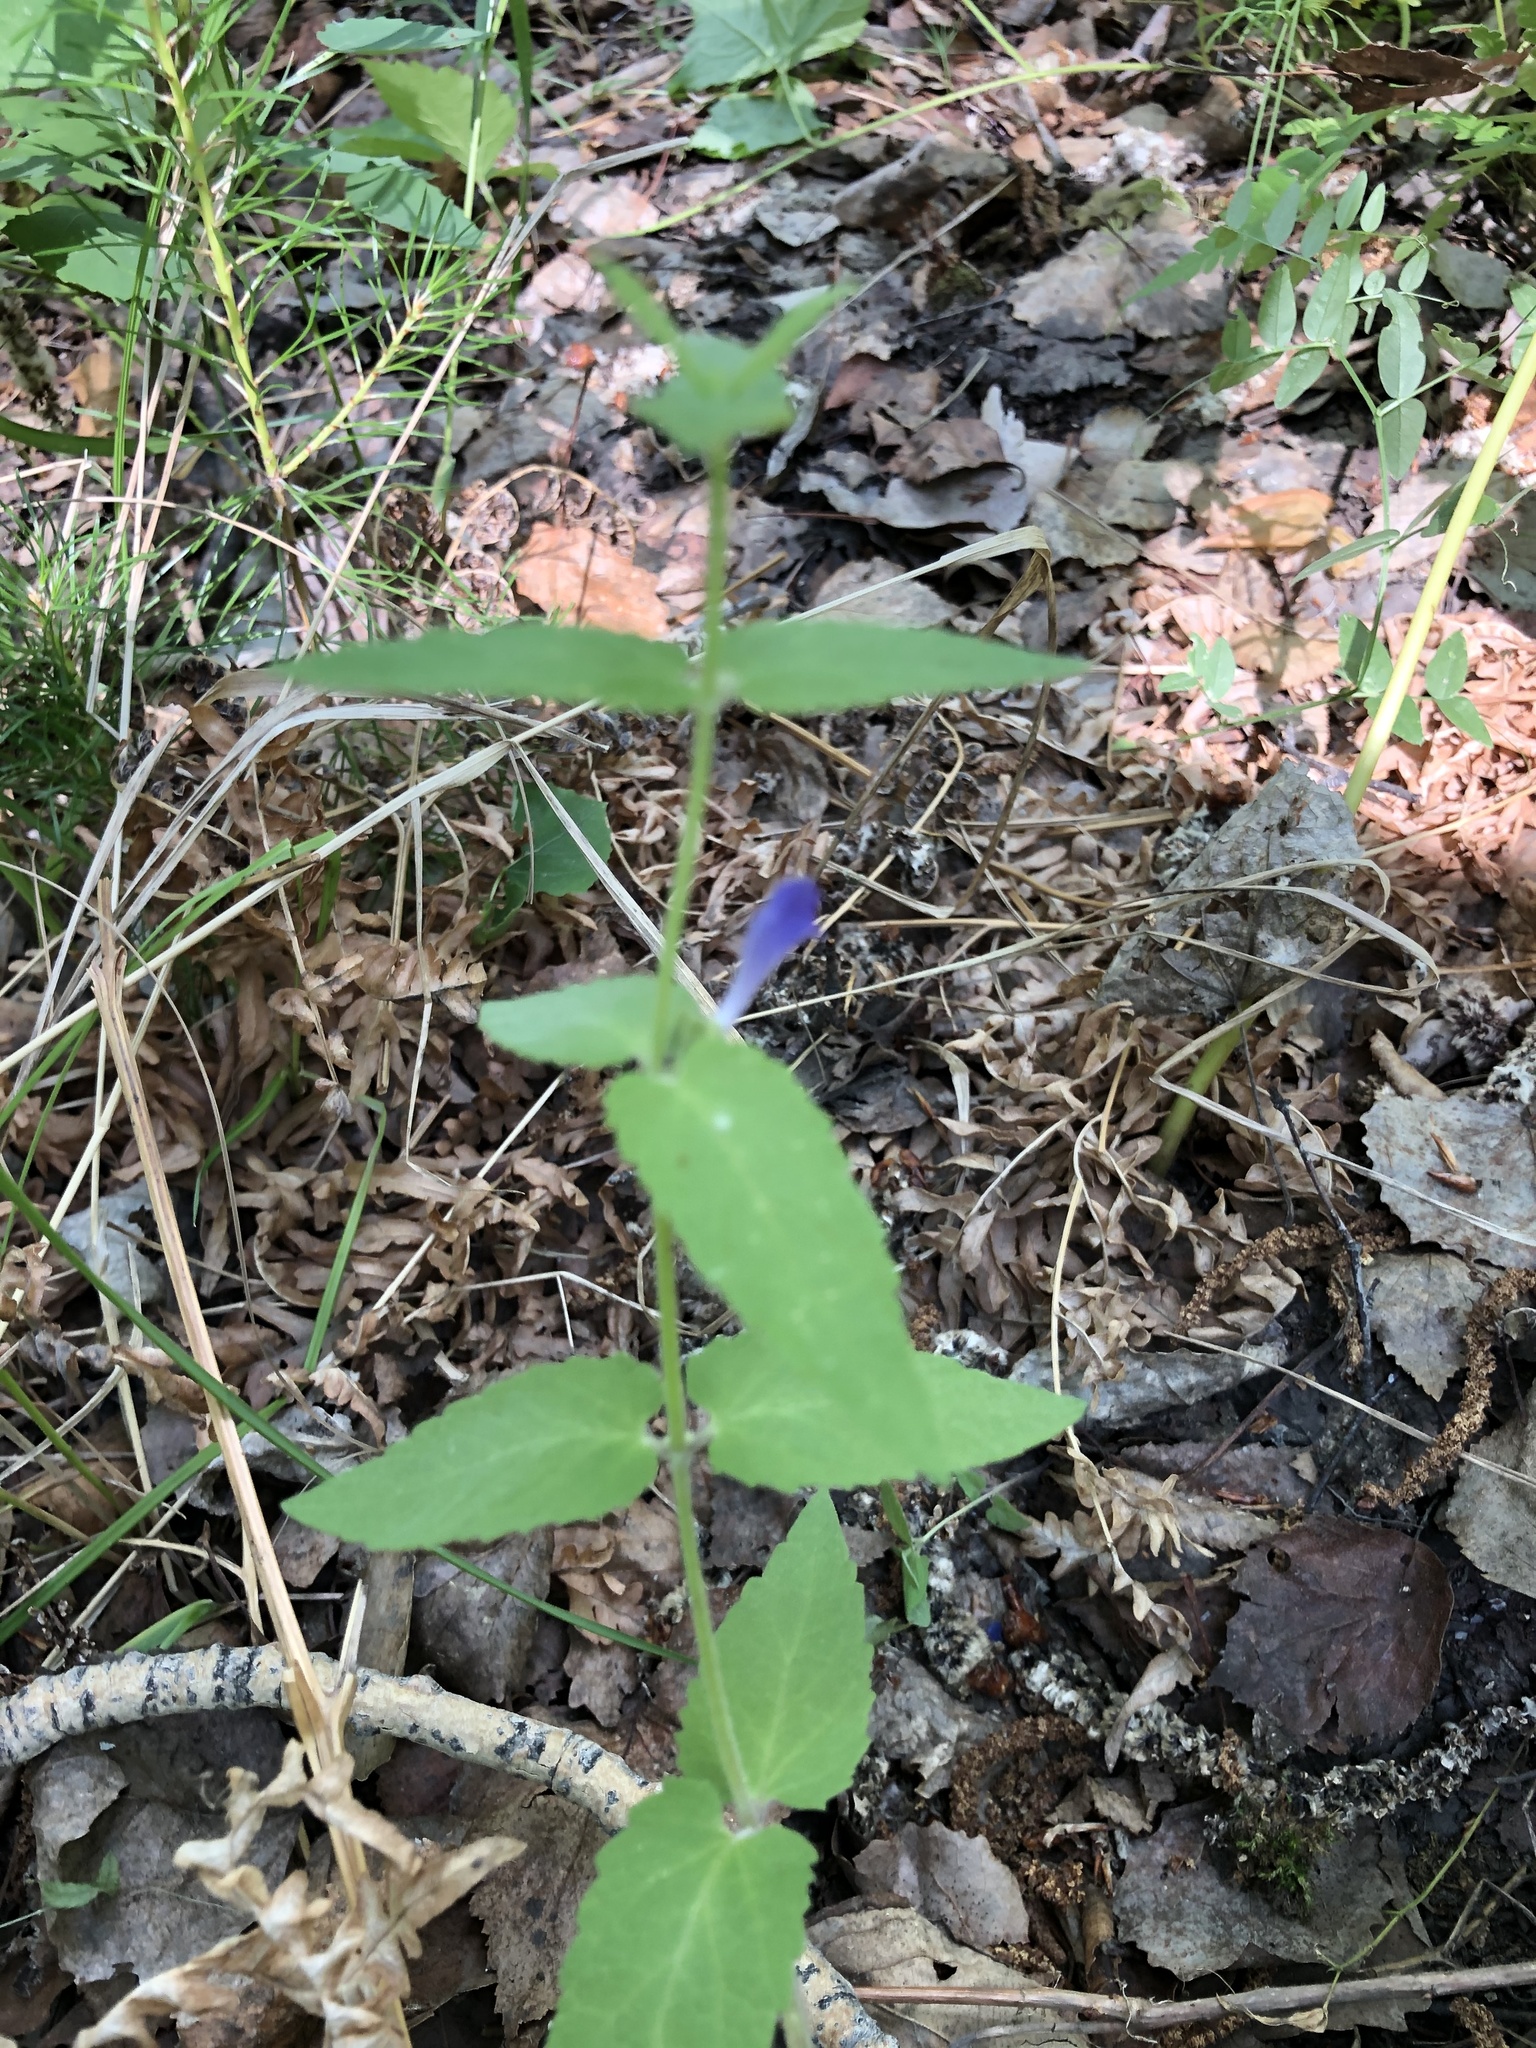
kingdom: Plantae
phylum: Tracheophyta
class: Magnoliopsida
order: Lamiales
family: Lamiaceae
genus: Scutellaria
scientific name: Scutellaria galericulata
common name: Skullcap
